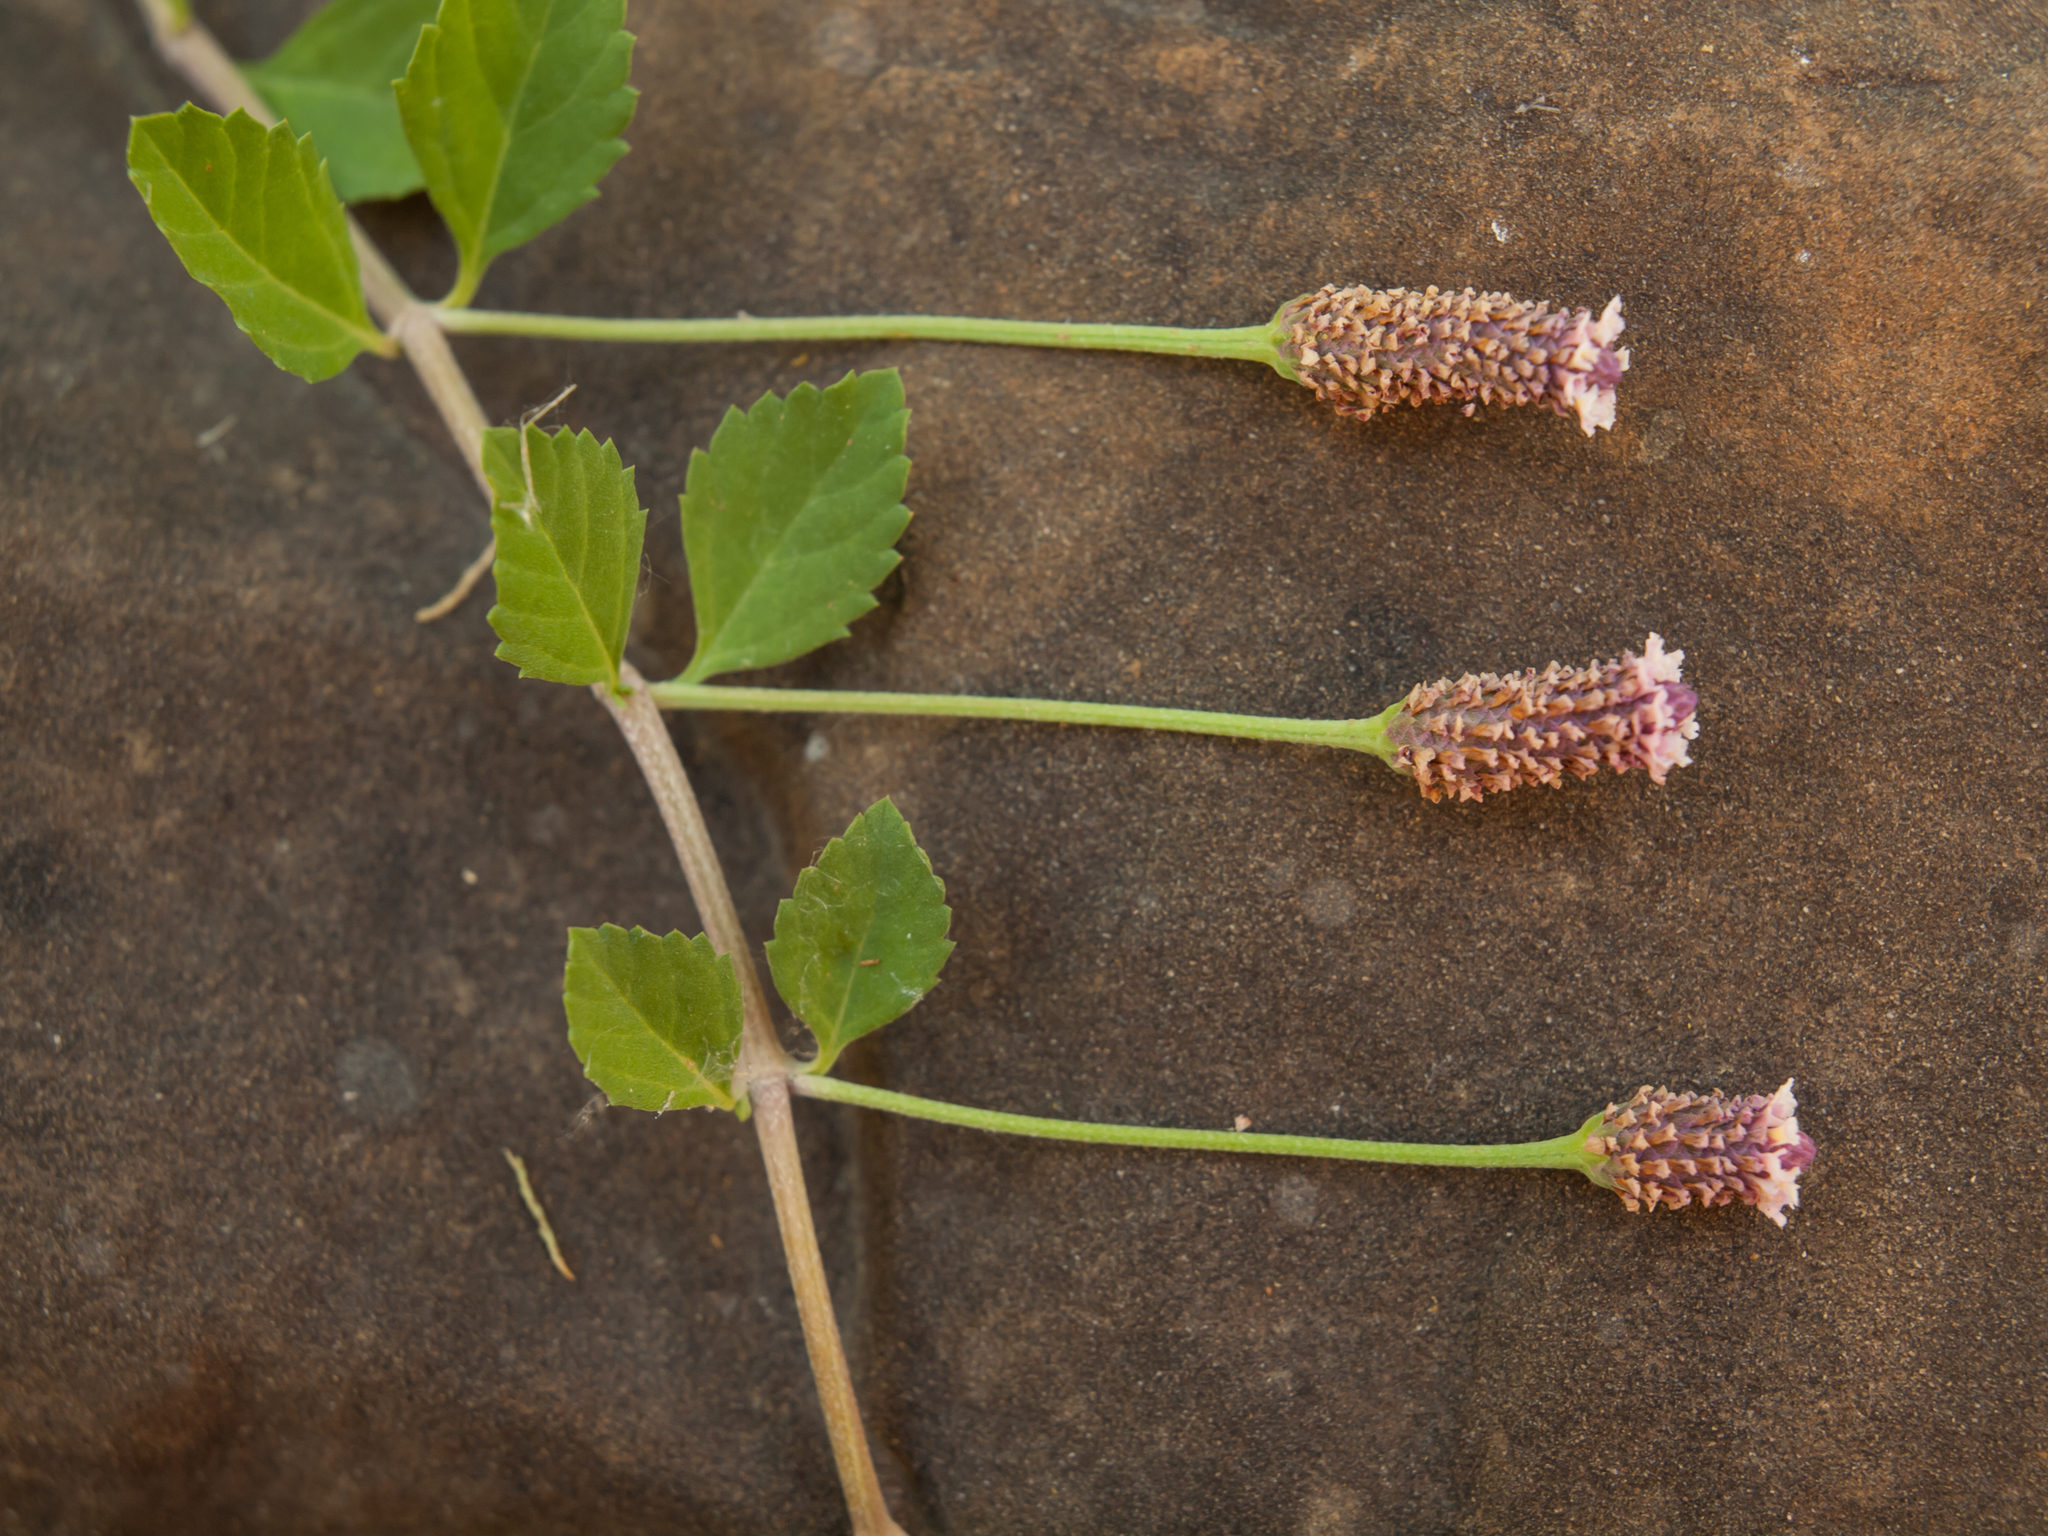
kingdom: Plantae
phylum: Tracheophyta
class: Magnoliopsida
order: Lamiales
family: Verbenaceae
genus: Phyla
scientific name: Phyla nodiflora
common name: Frogfruit
